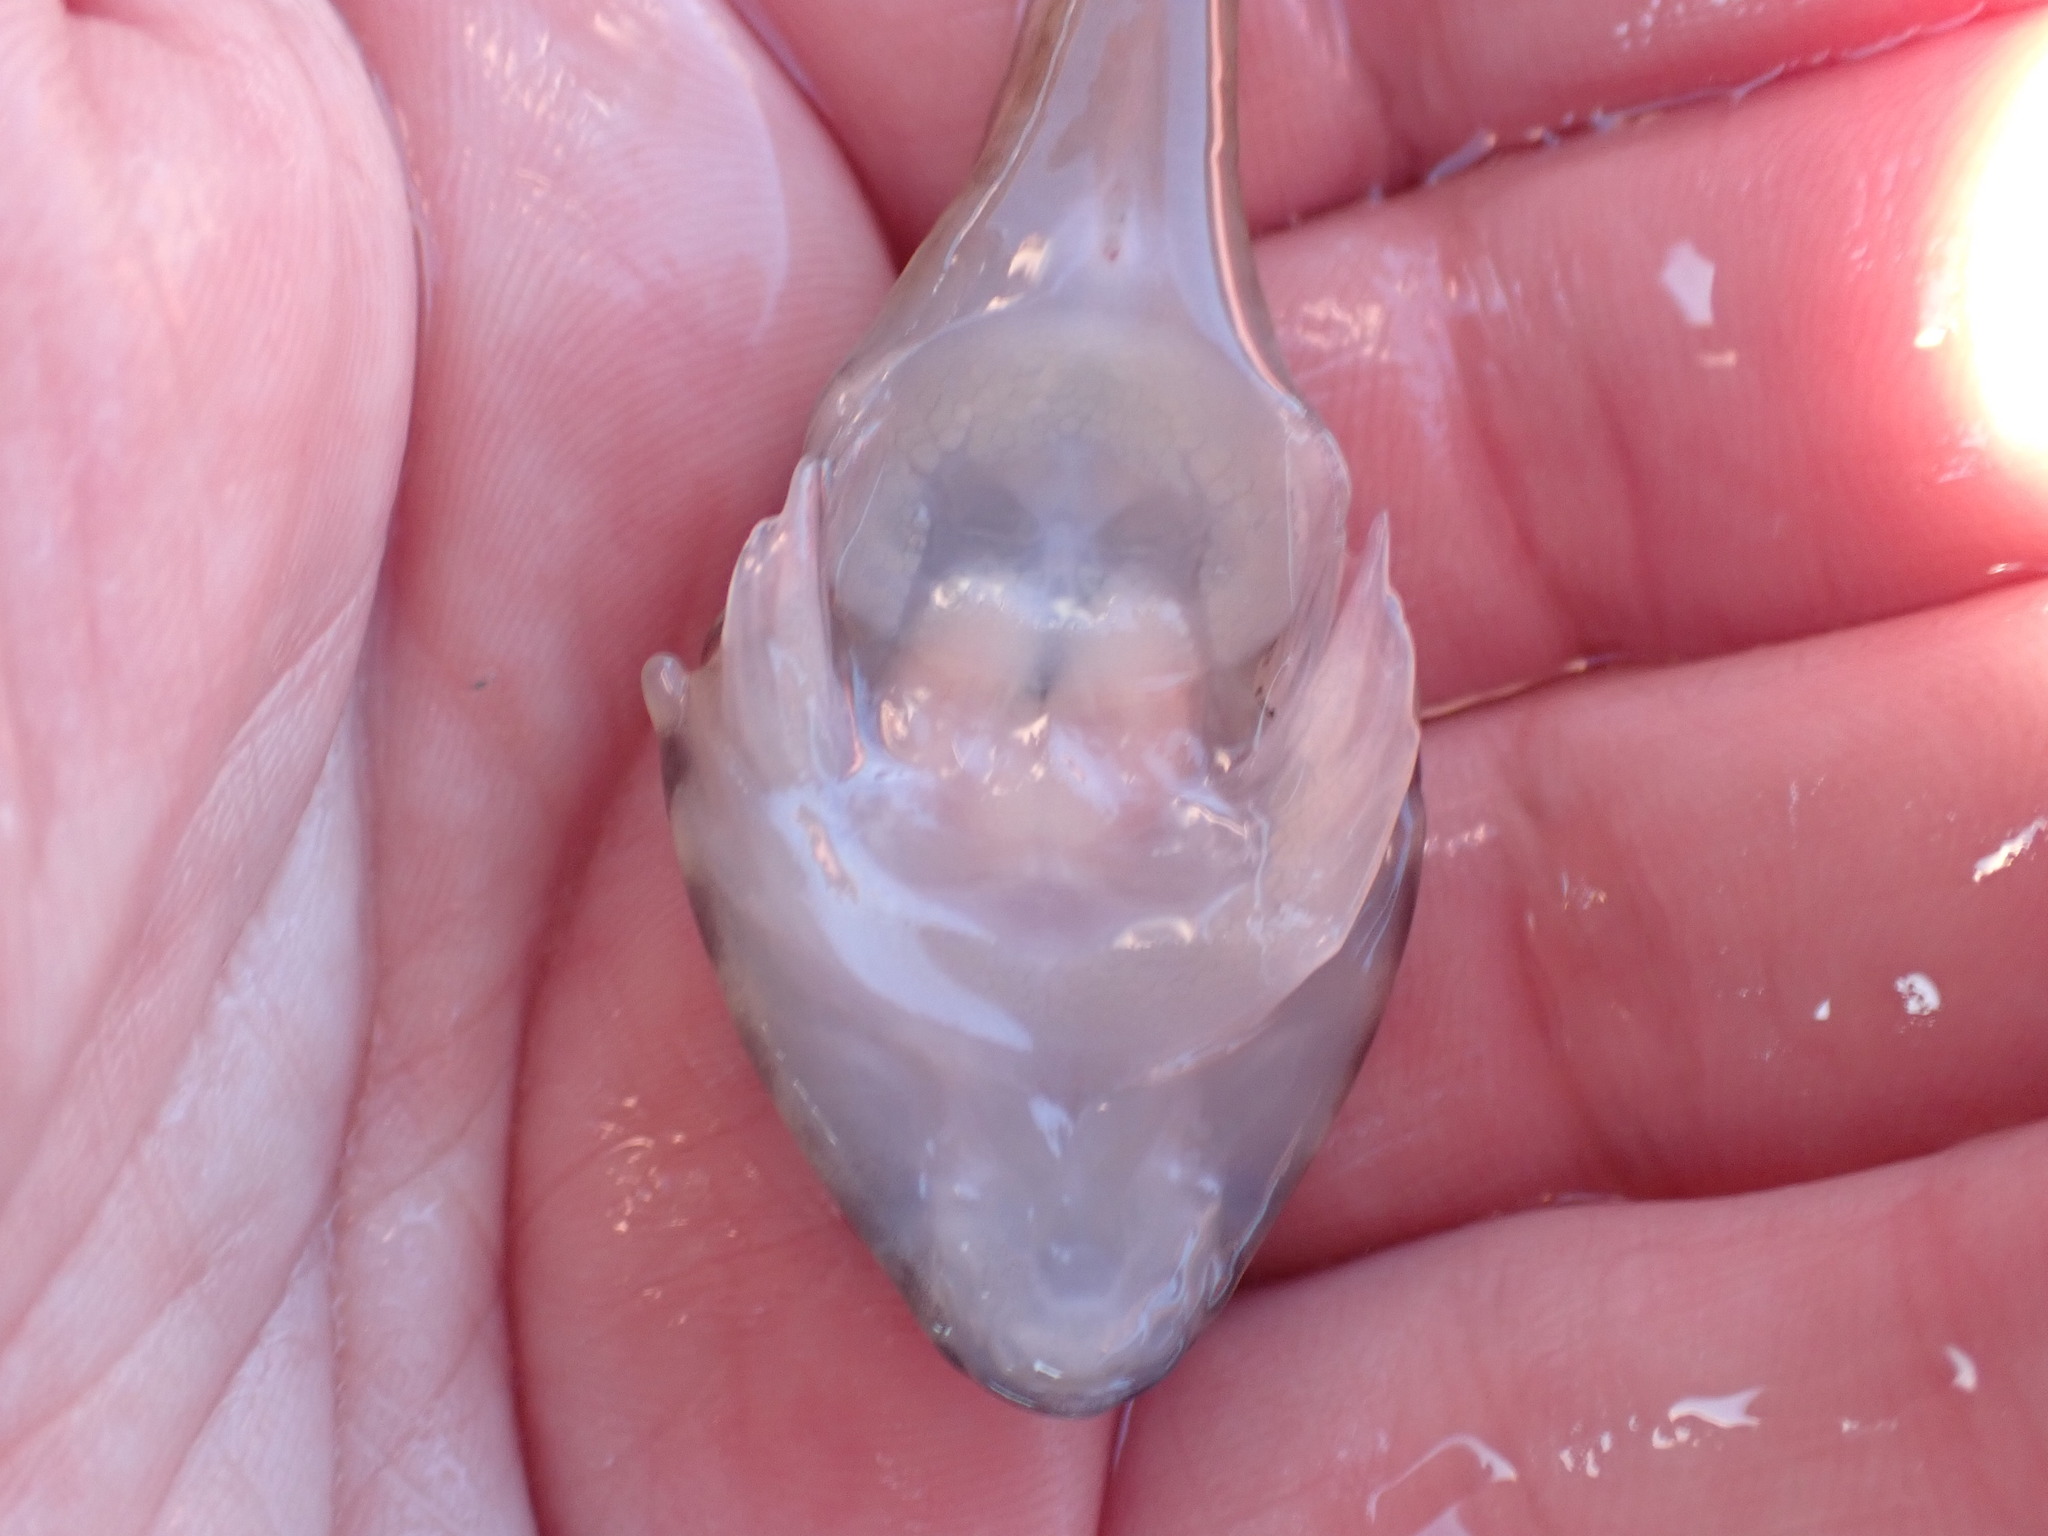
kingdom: Animalia
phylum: Chordata
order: Gobiesociformes
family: Gobiesocidae
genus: Diplocrepis
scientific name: Diplocrepis puniceus
